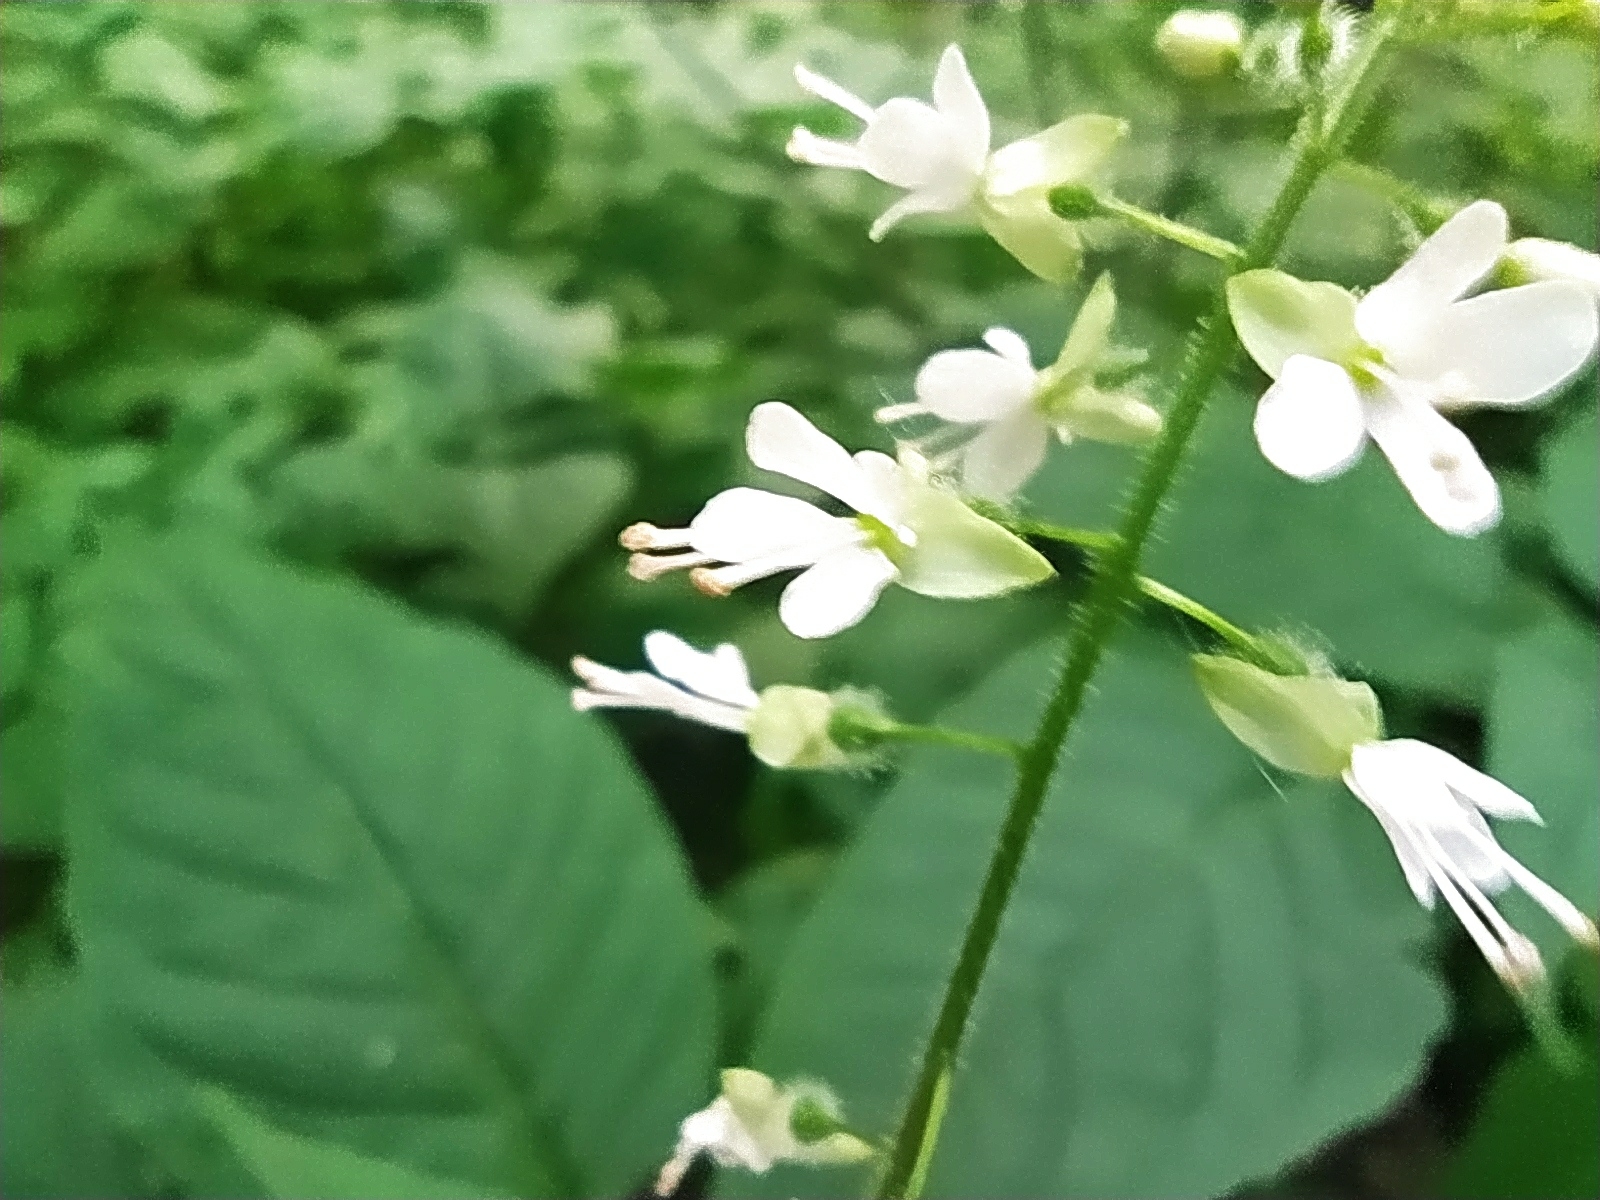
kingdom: Plantae
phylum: Tracheophyta
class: Magnoliopsida
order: Myrtales
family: Onagraceae
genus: Circaea
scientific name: Circaea lutetiana
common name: Enchanter's-nightshade
